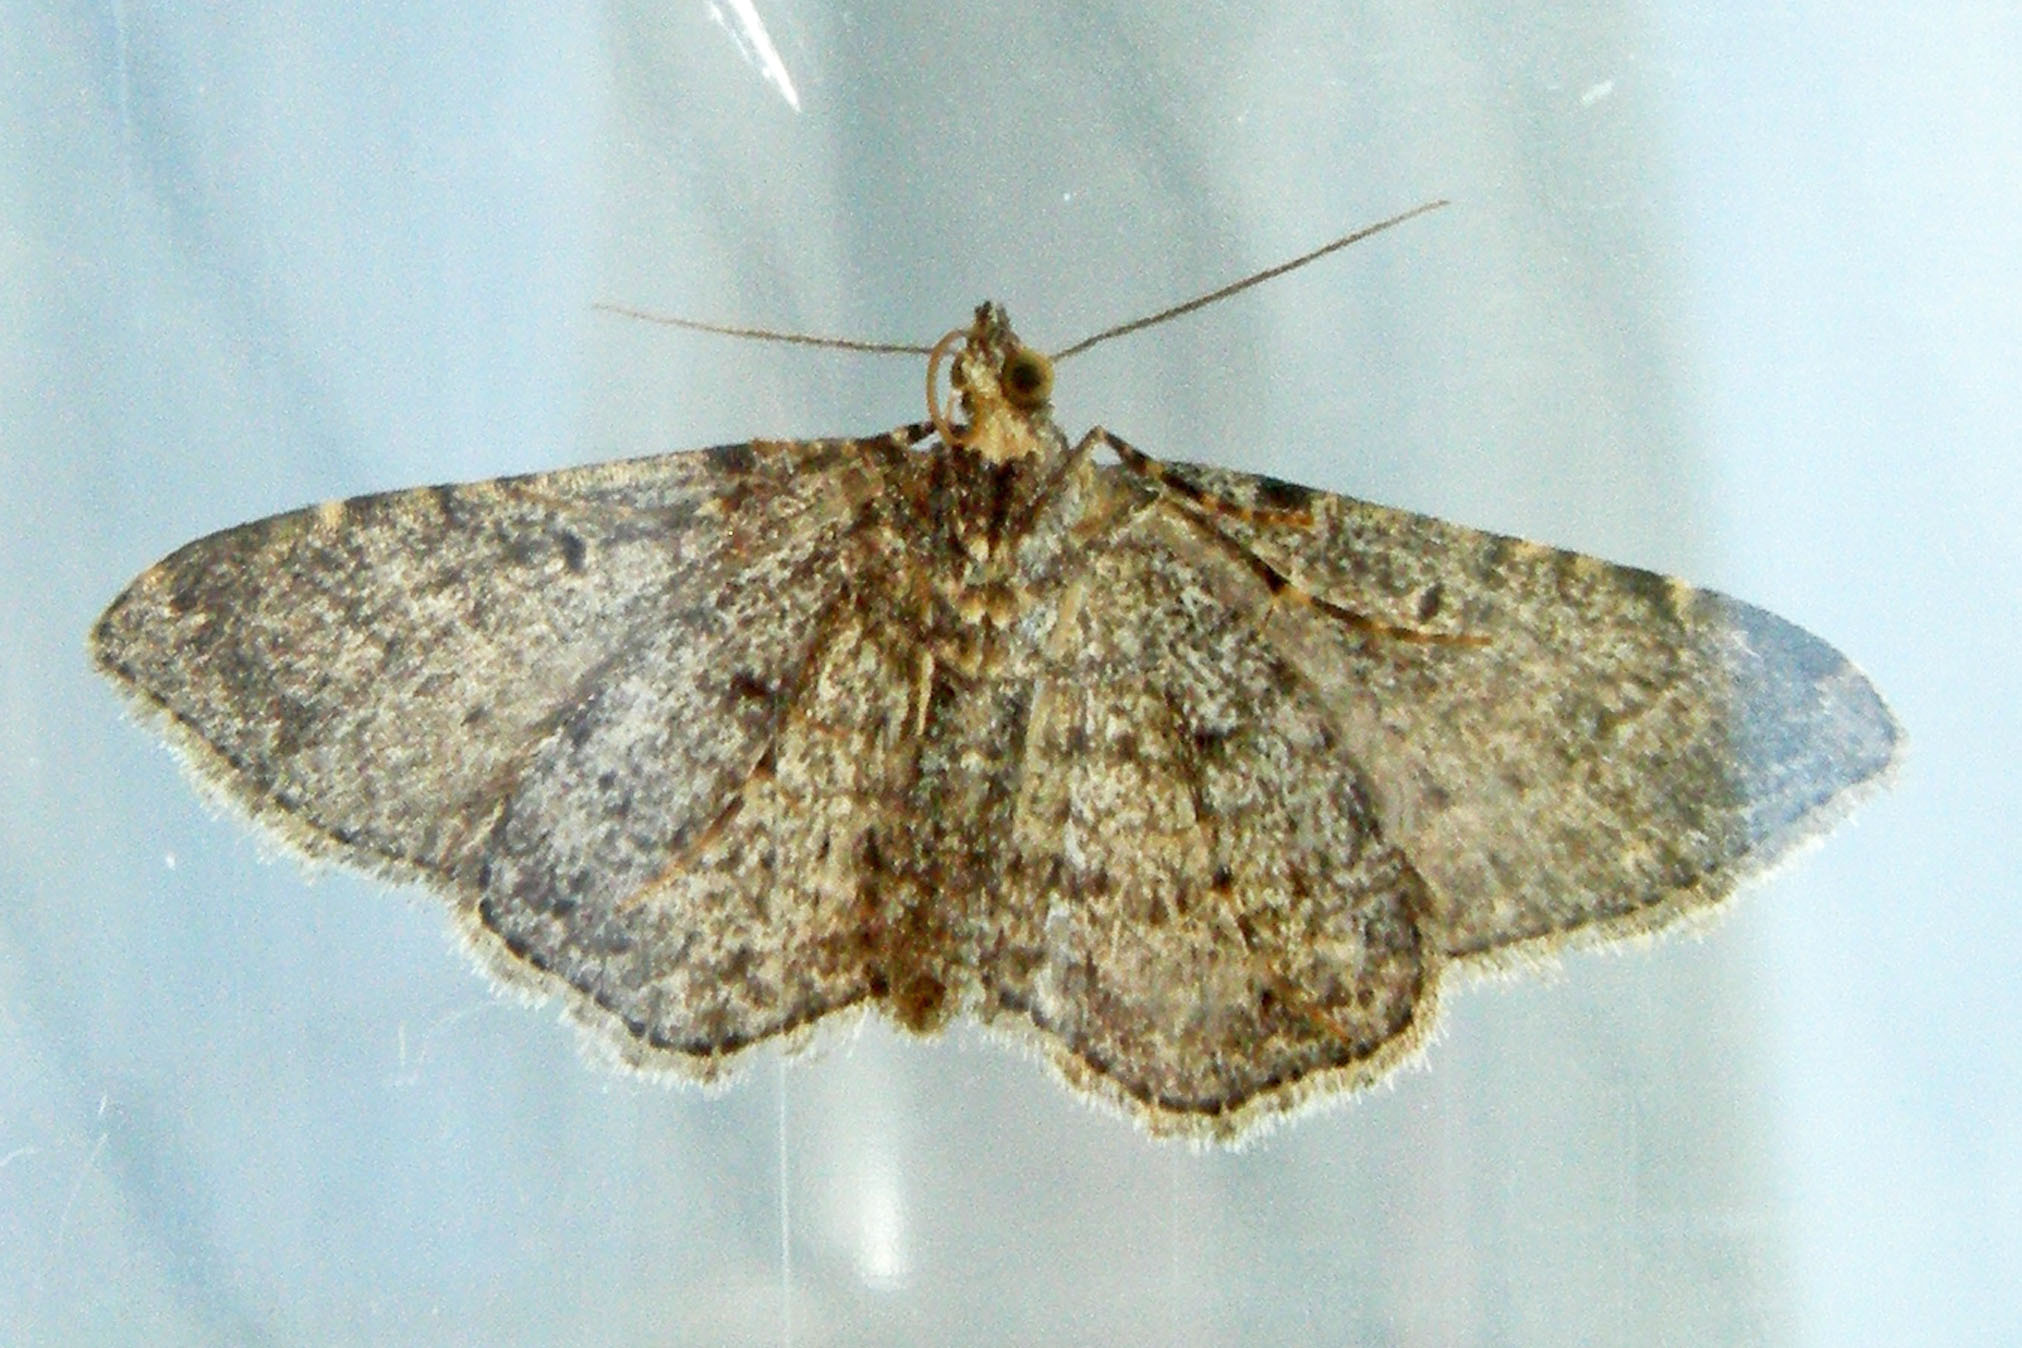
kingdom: Animalia
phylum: Arthropoda
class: Insecta
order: Lepidoptera
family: Geometridae
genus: Orthonama
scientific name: Orthonama obstipata
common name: The gem
